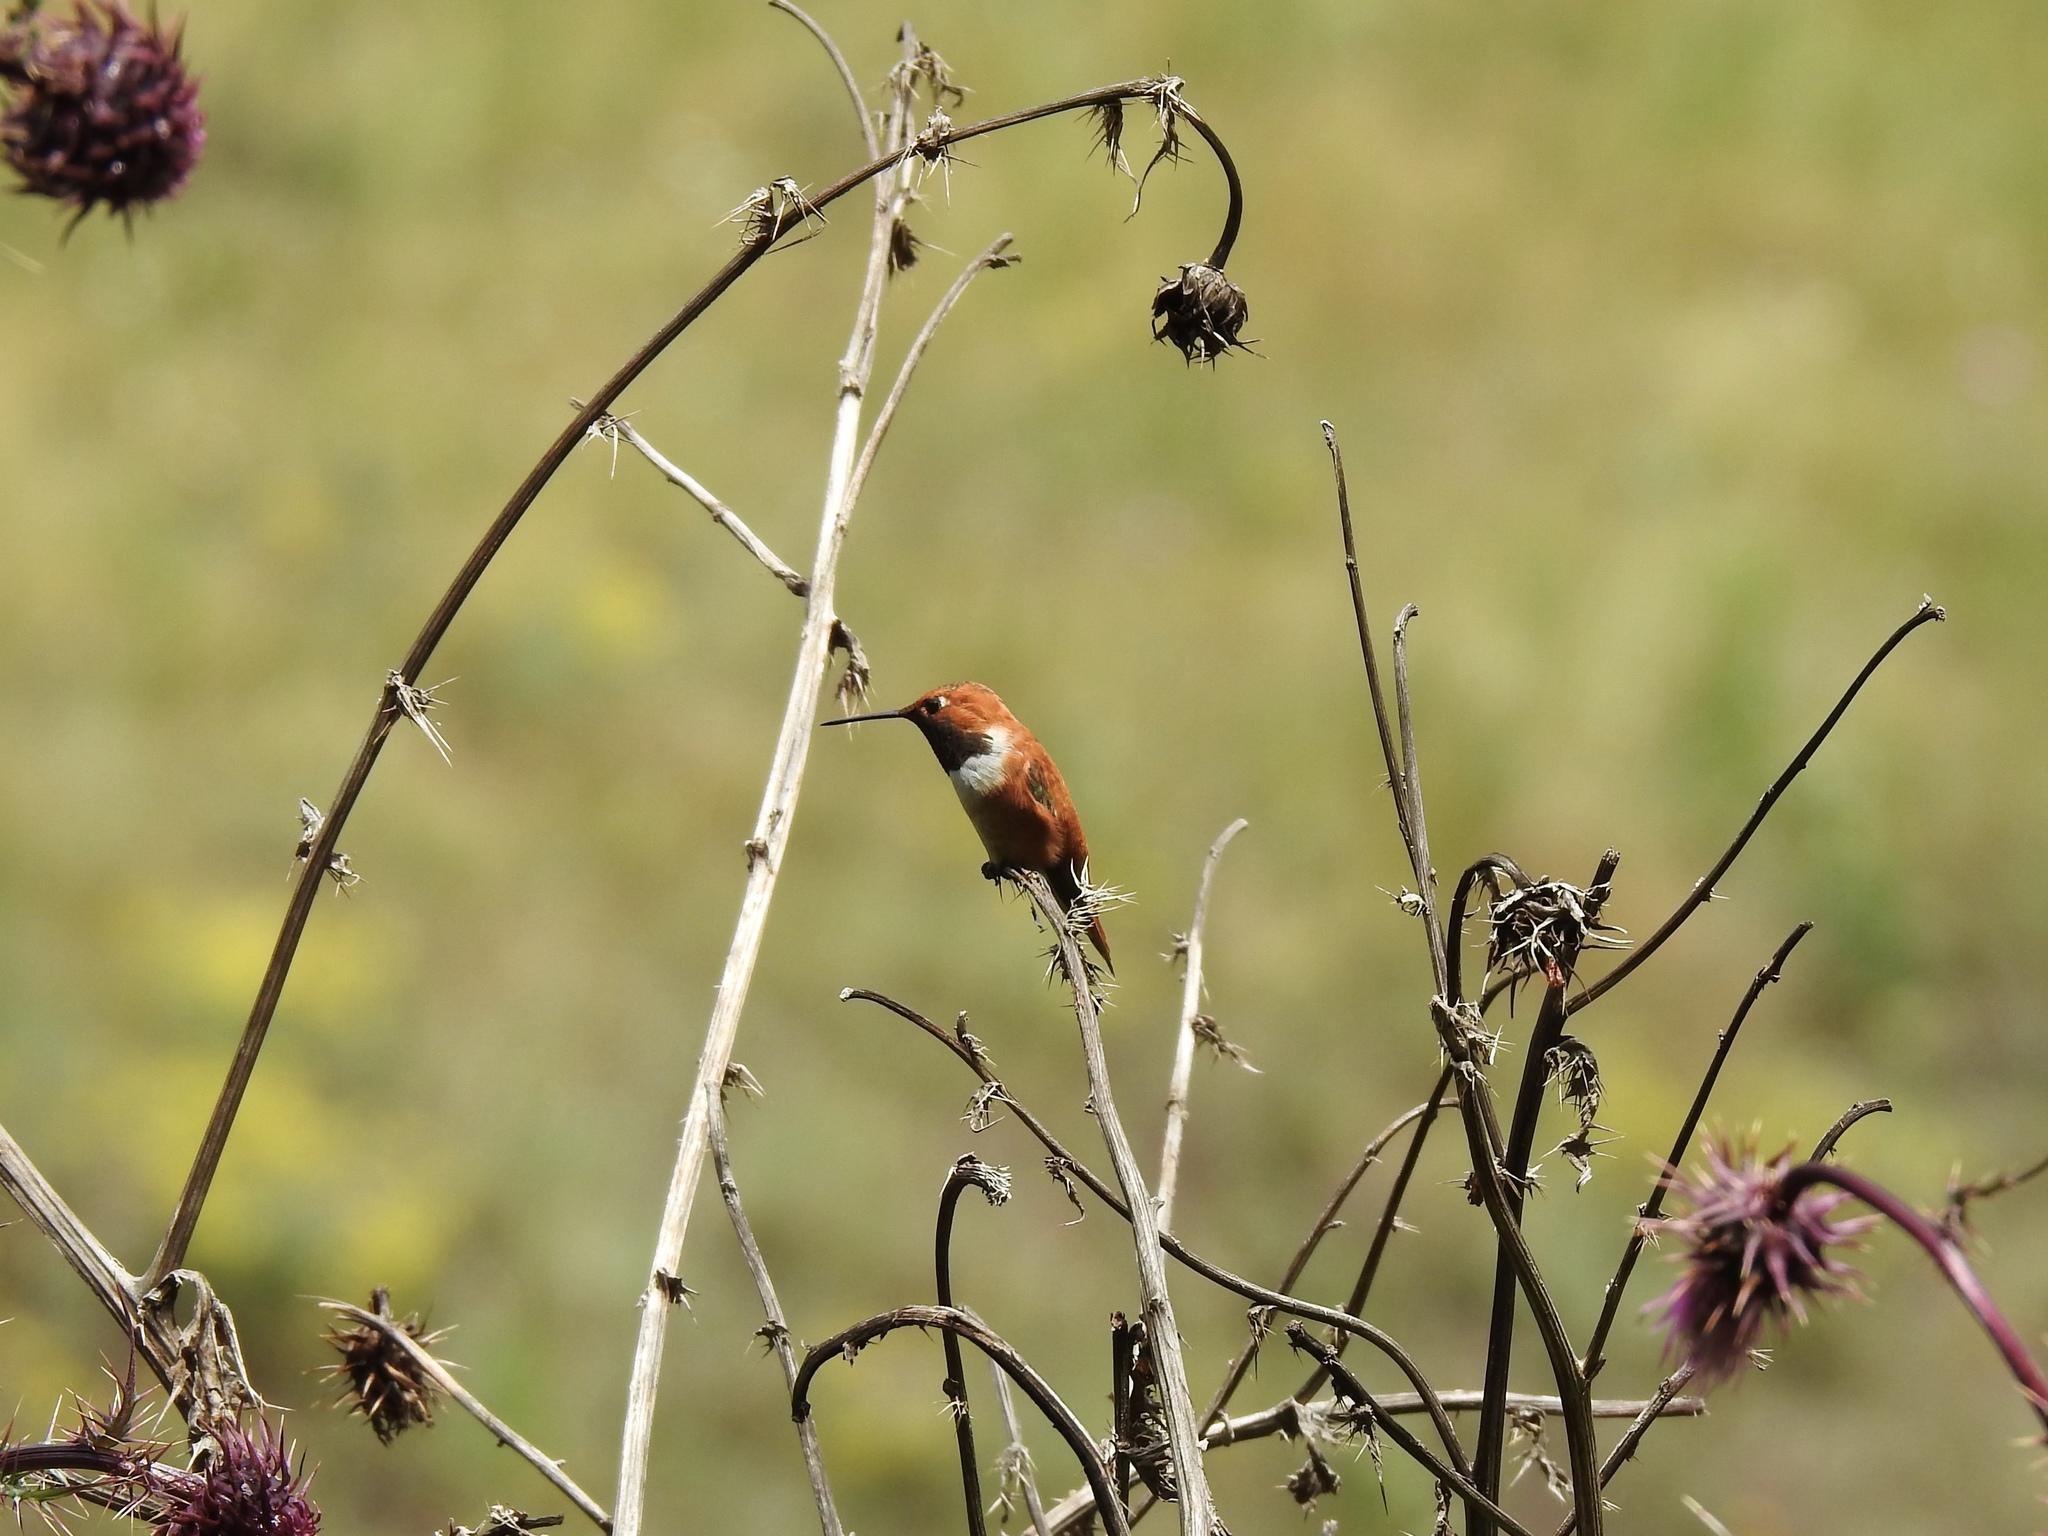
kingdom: Animalia
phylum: Chordata
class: Aves
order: Apodiformes
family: Trochilidae
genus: Selasphorus
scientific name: Selasphorus rufus
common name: Rufous hummingbird
